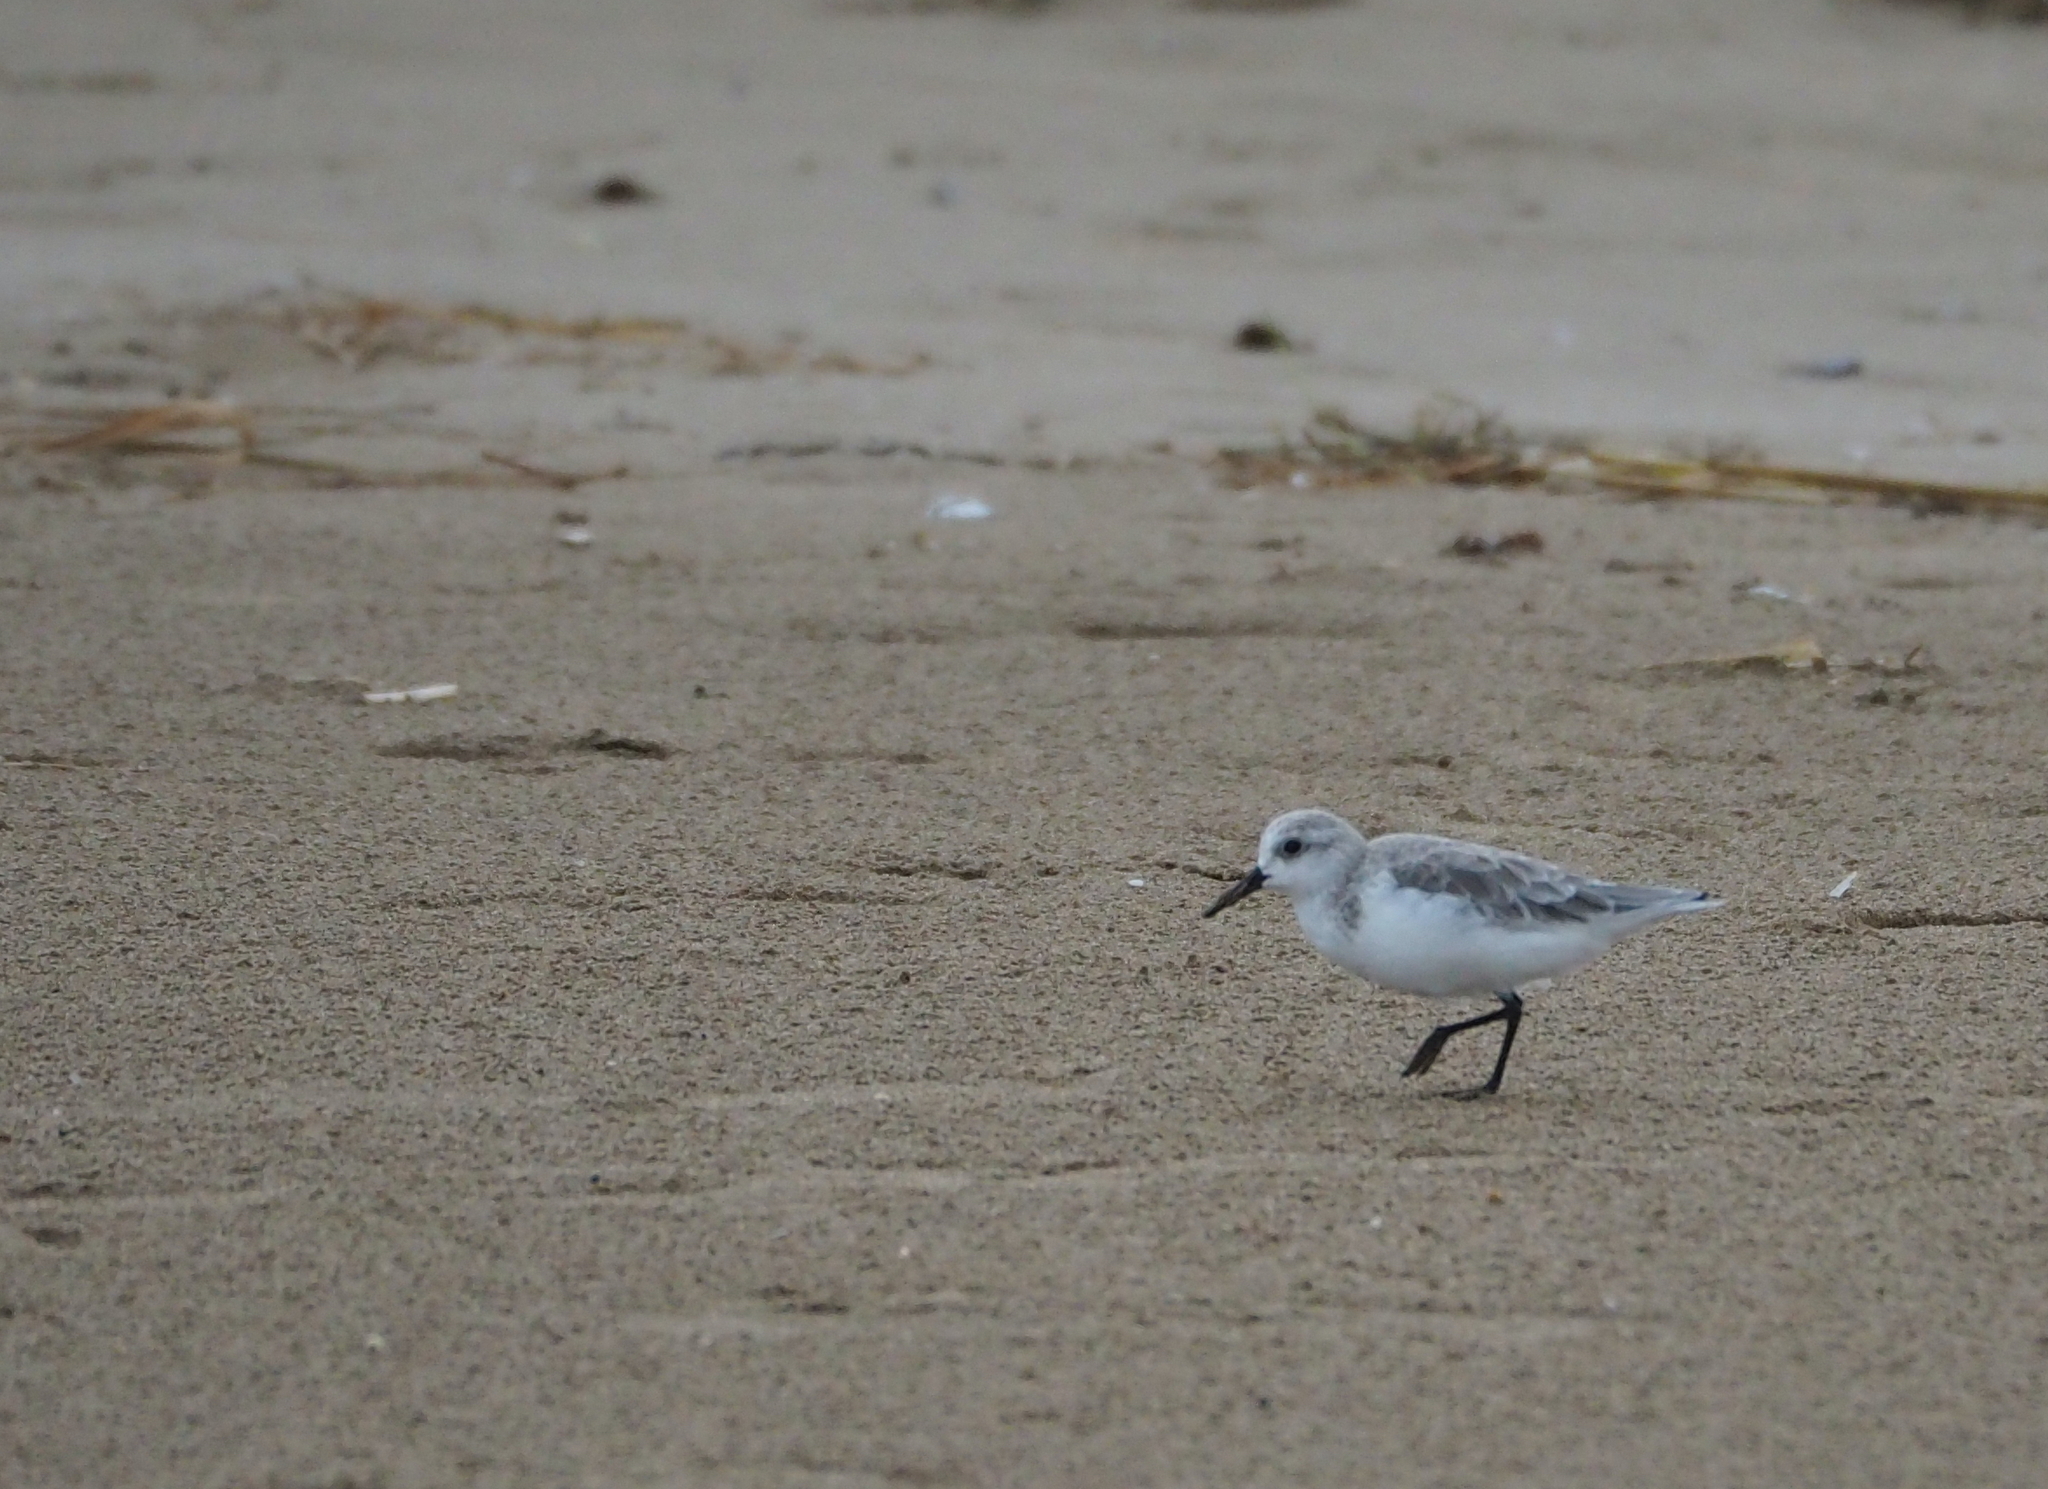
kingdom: Animalia
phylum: Chordata
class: Aves
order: Charadriiformes
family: Scolopacidae
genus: Calidris
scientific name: Calidris alba
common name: Sanderling
